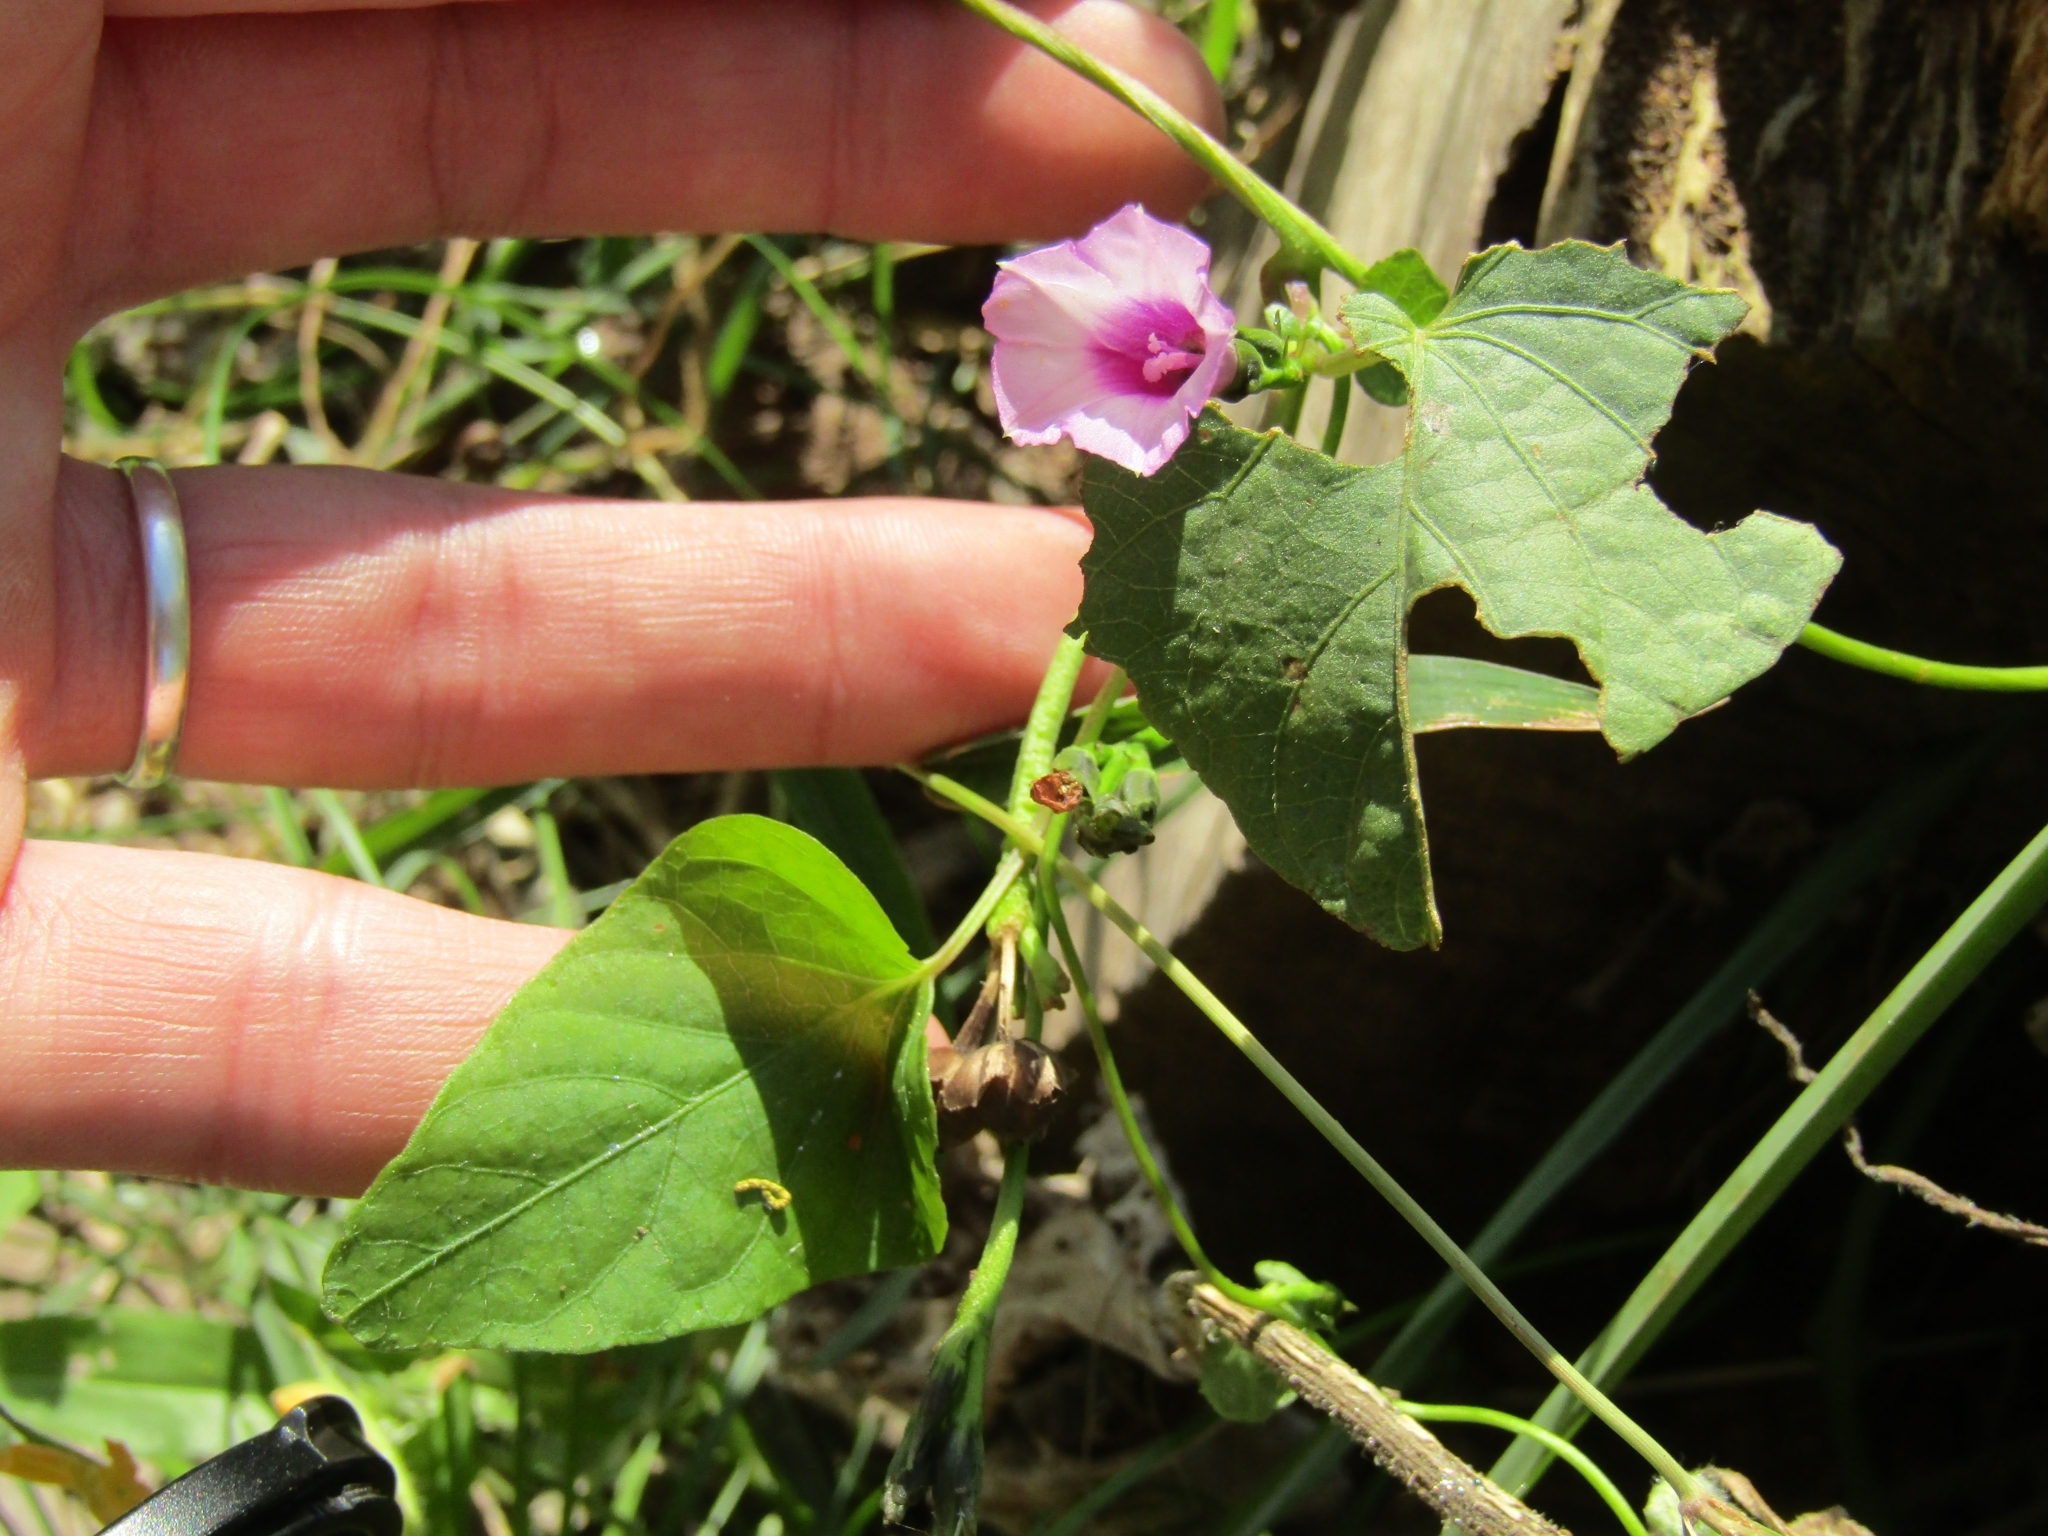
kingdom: Plantae
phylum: Tracheophyta
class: Magnoliopsida
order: Solanales
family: Convolvulaceae
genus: Ipomoea
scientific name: Ipomoea grandifolia
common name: Aiea morning glory
